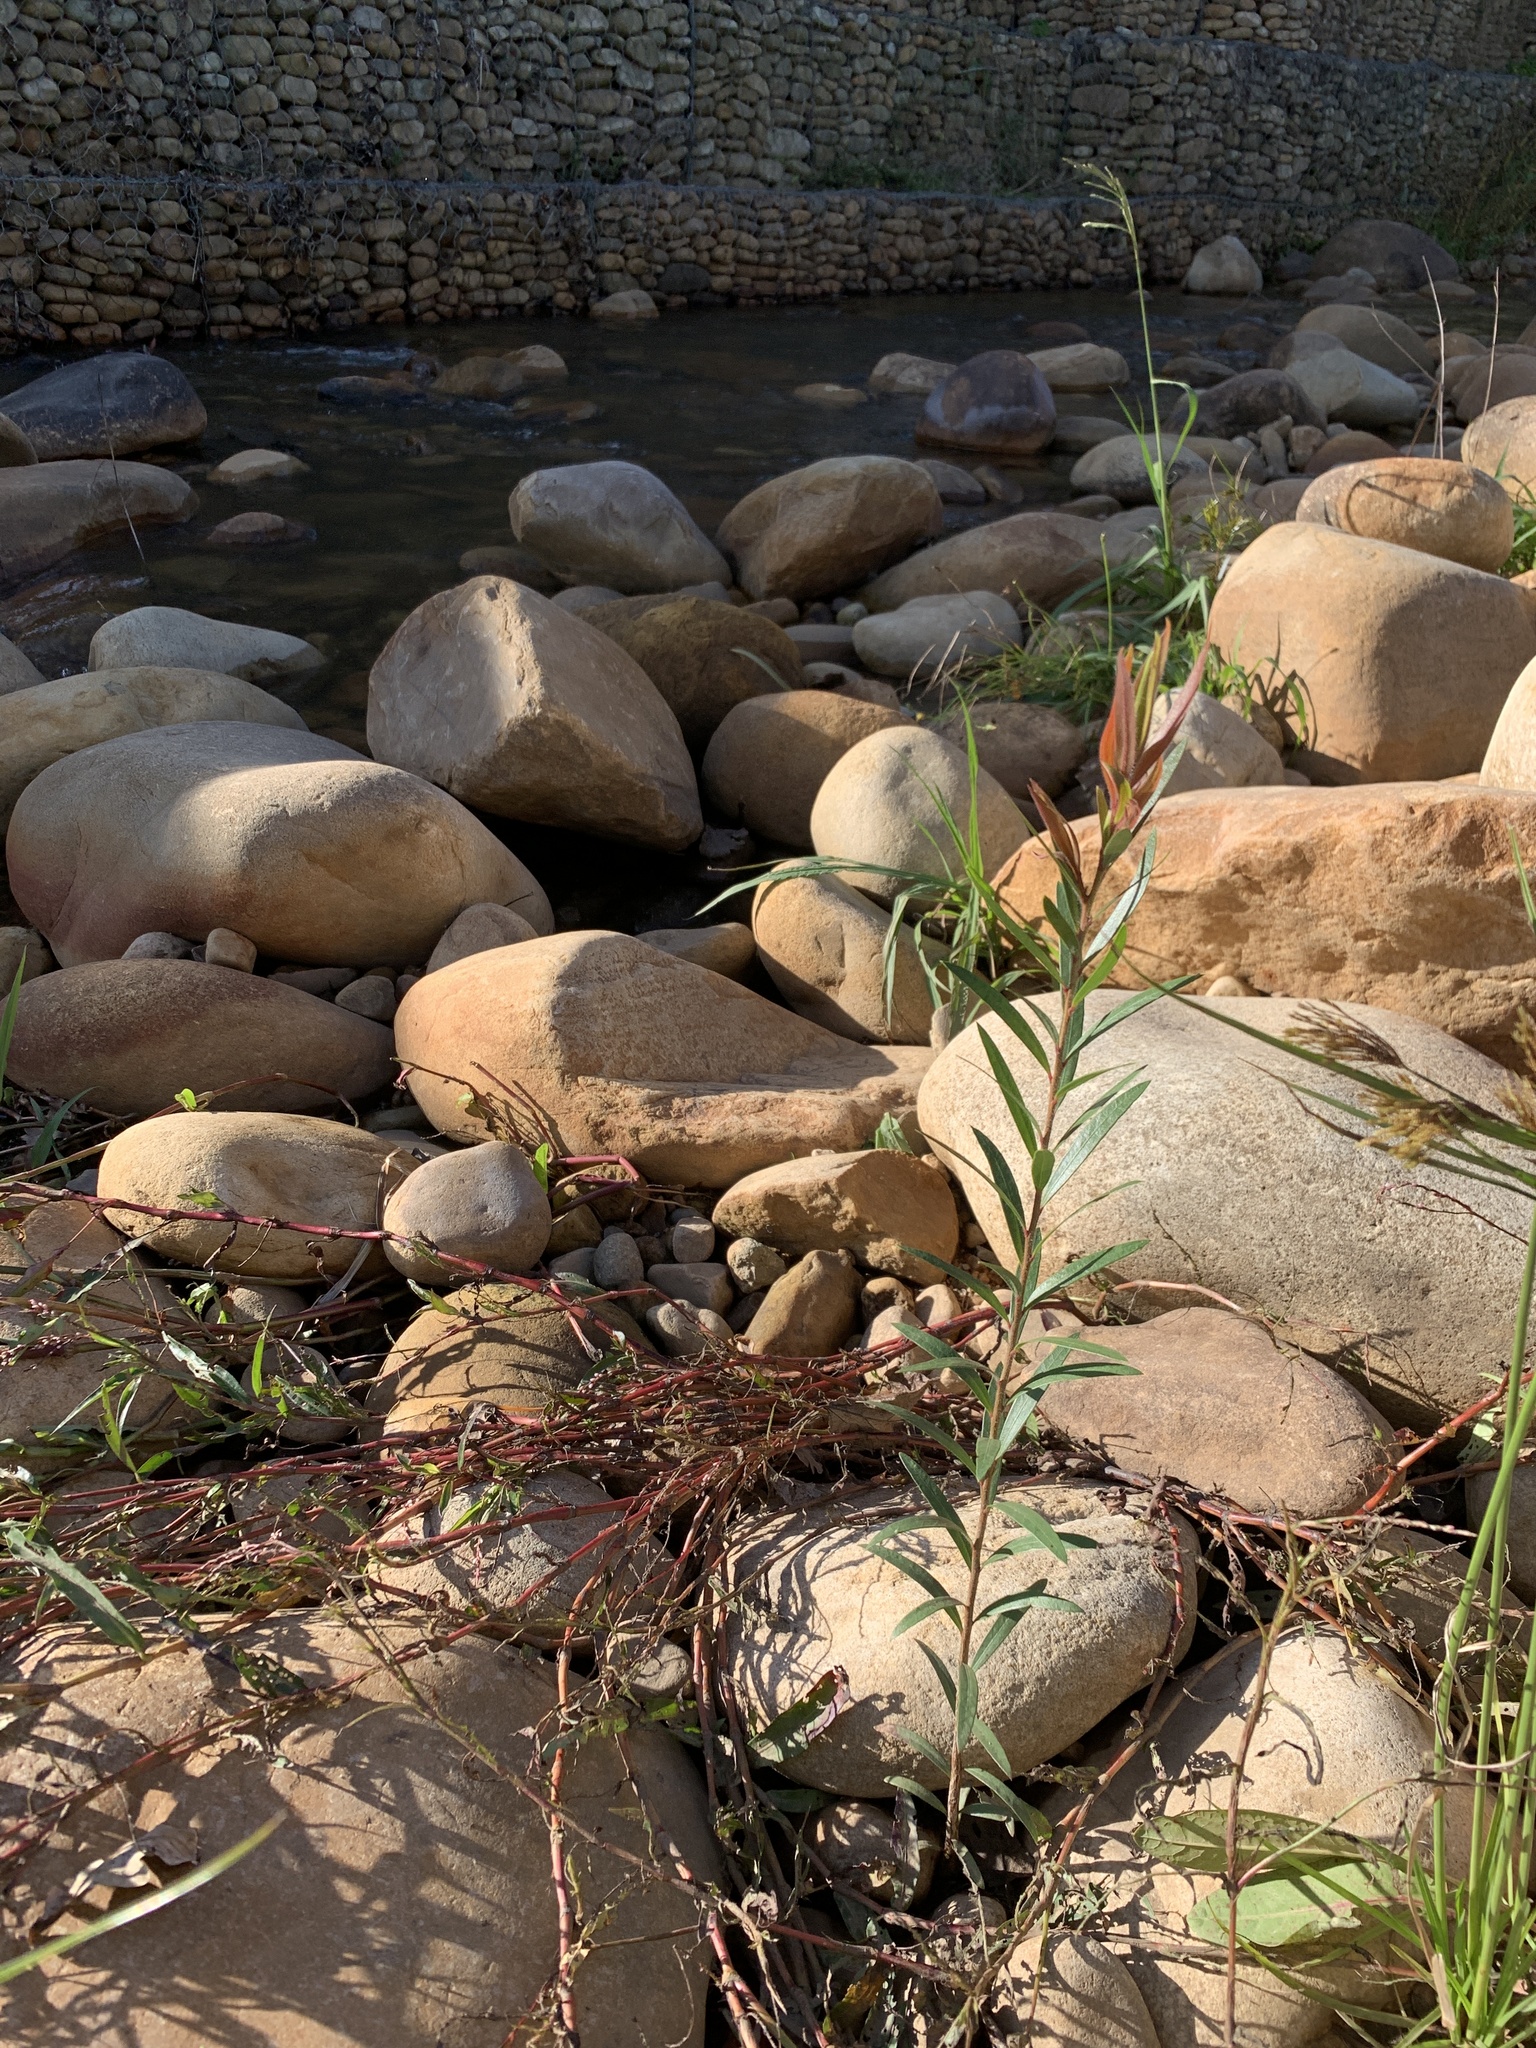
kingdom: Plantae
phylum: Tracheophyta
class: Magnoliopsida
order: Myrtales
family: Myrtaceae
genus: Callistemon
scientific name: Callistemon viminalis
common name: Drooping bottlebrush
